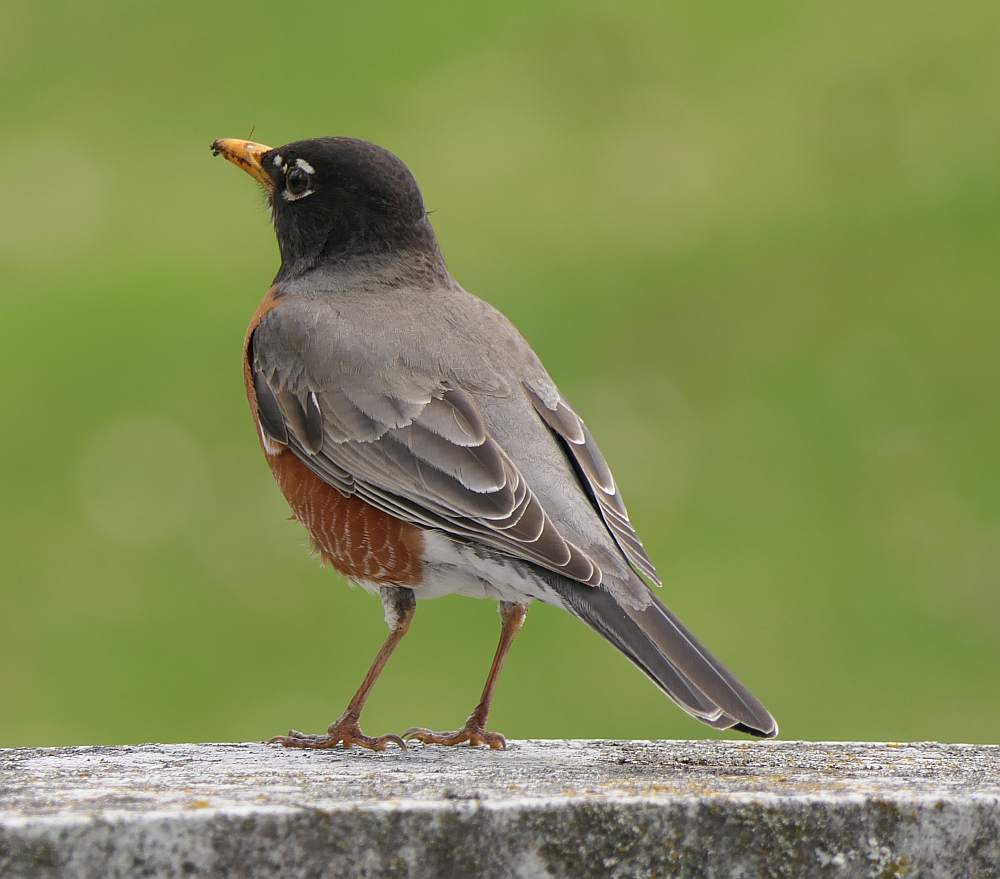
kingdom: Animalia
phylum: Chordata
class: Aves
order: Passeriformes
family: Turdidae
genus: Turdus
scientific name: Turdus migratorius
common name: American robin
